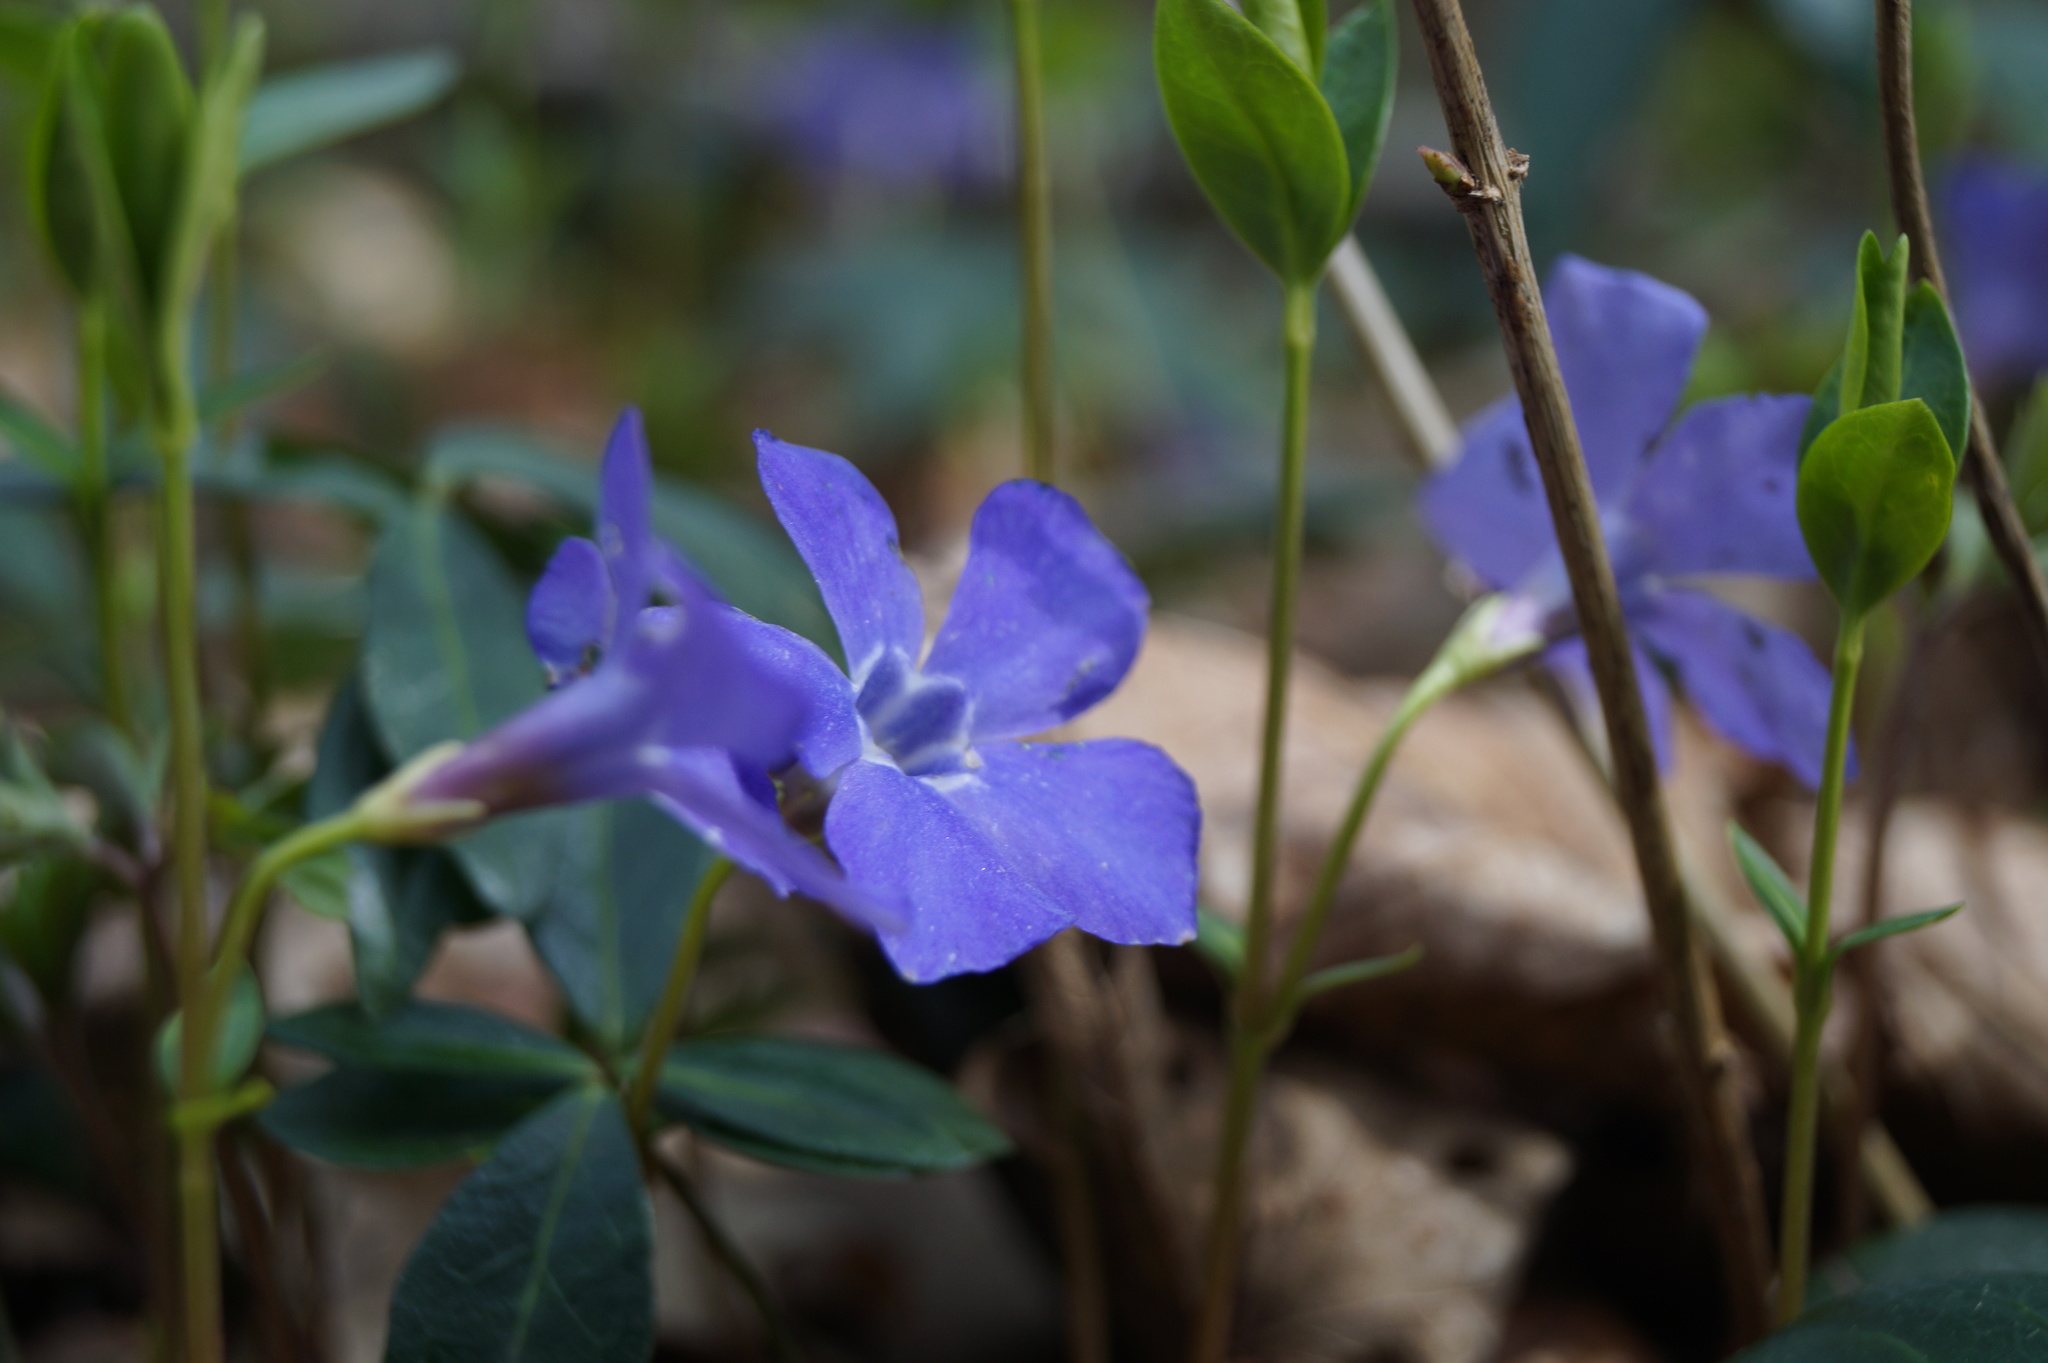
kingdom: Plantae
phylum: Tracheophyta
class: Magnoliopsida
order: Gentianales
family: Apocynaceae
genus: Vinca
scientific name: Vinca minor
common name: Lesser periwinkle
